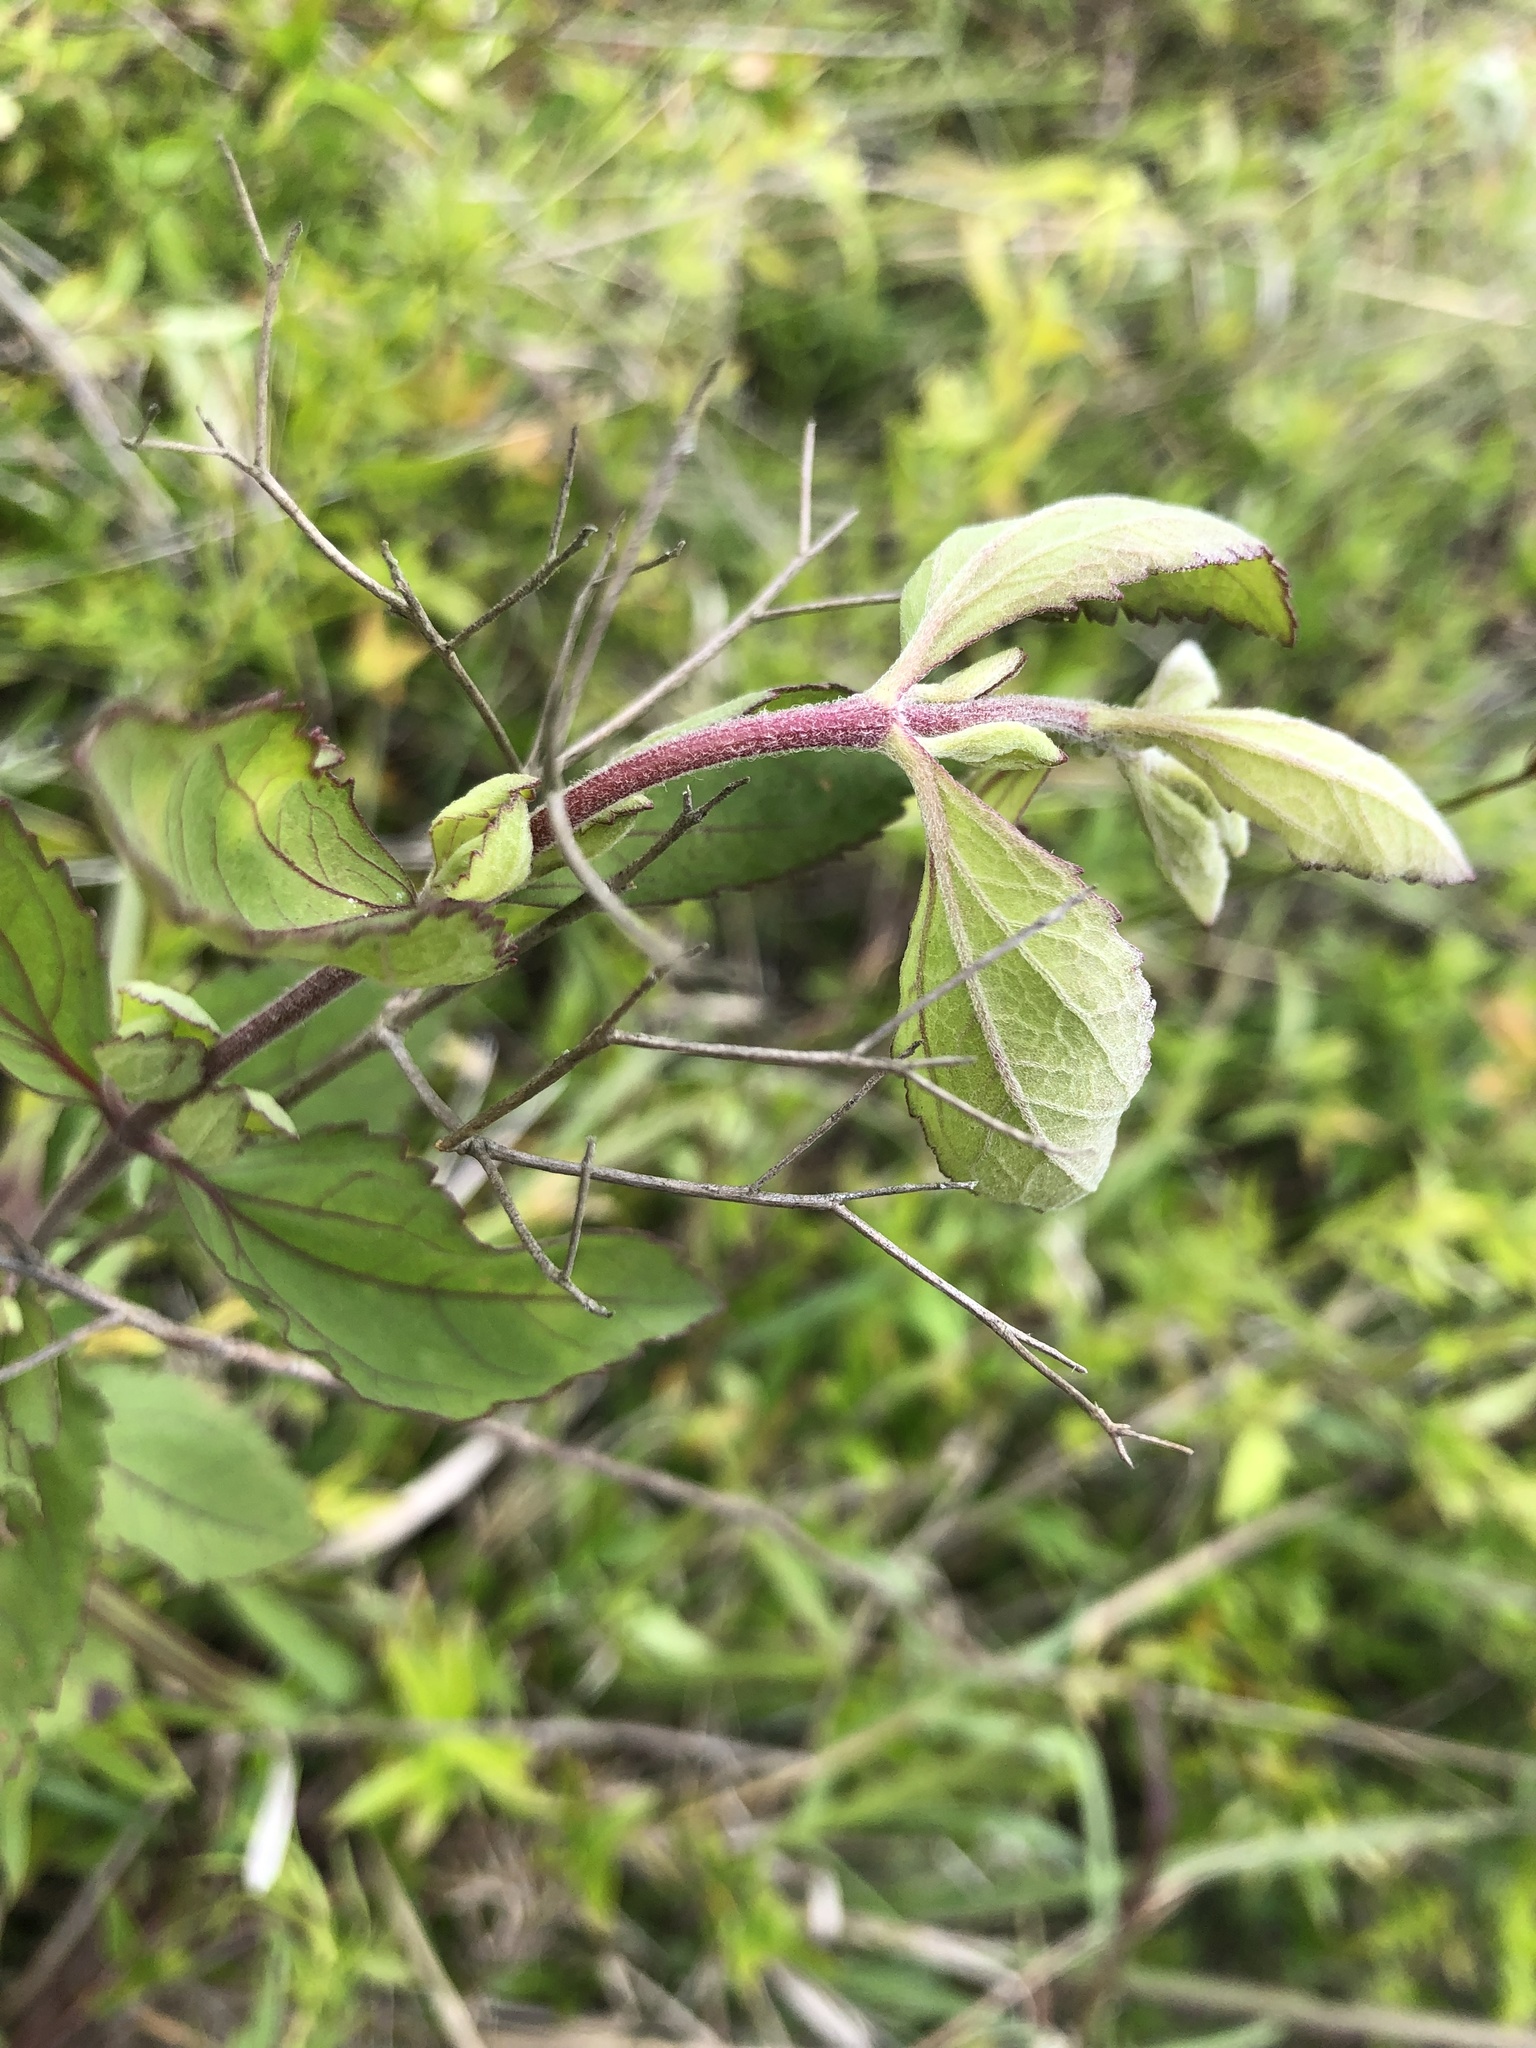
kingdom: Plantae
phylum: Tracheophyta
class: Magnoliopsida
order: Asterales
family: Asteraceae
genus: Eupatorium
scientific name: Eupatorium rotundifolium
